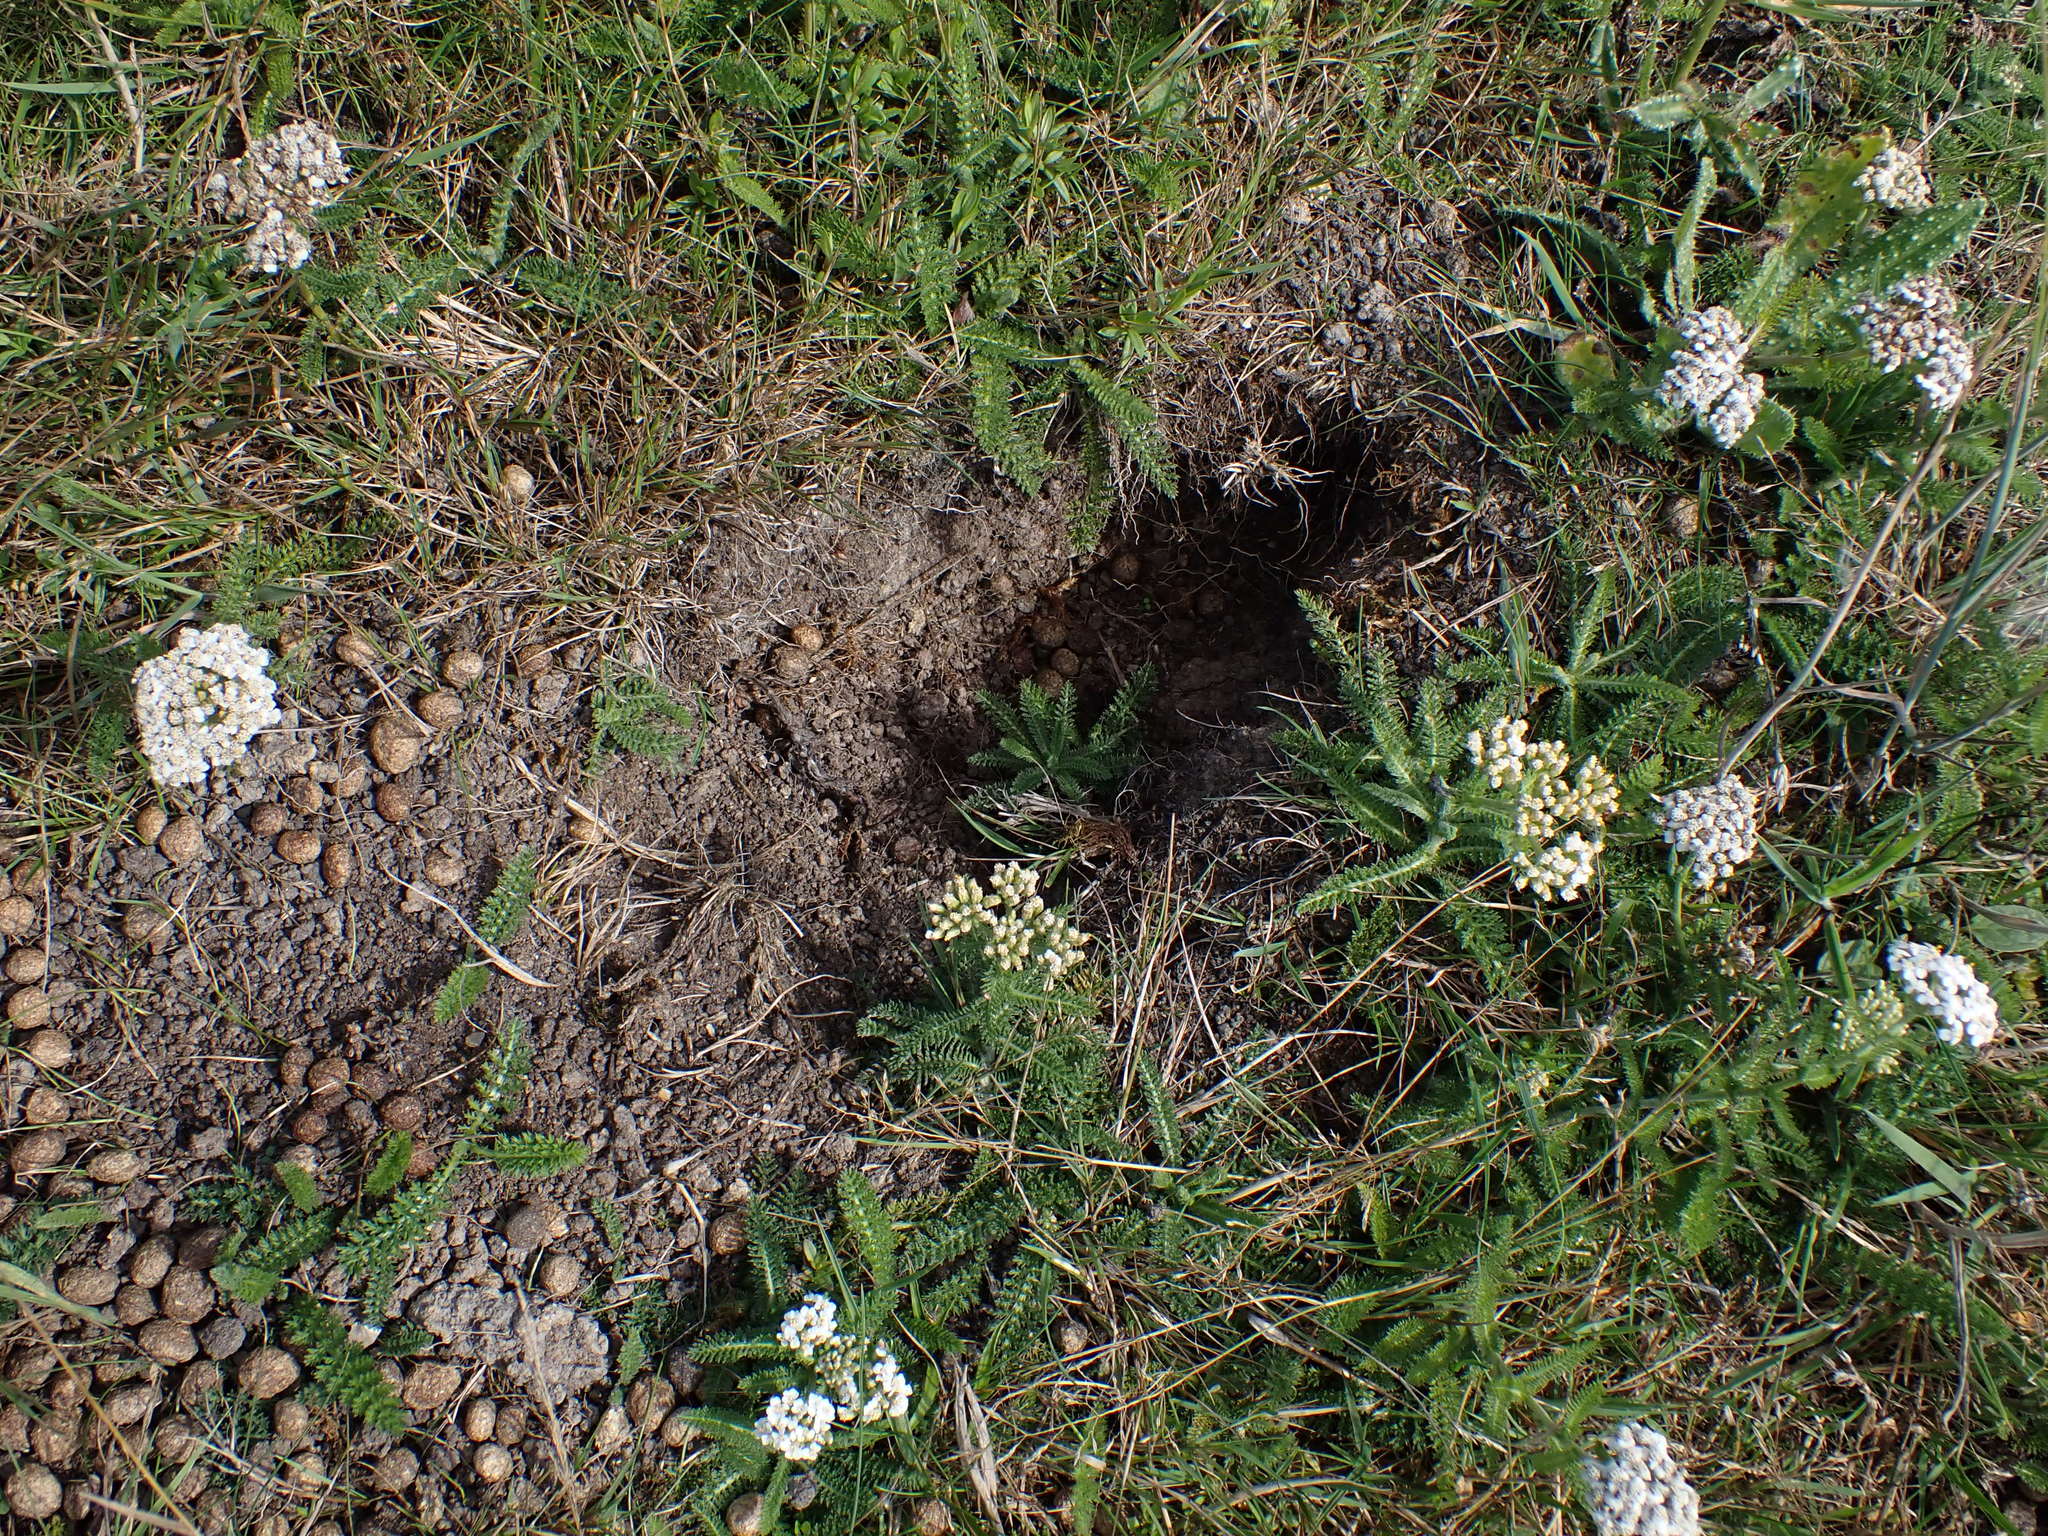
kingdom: Animalia
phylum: Chordata
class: Mammalia
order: Lagomorpha
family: Leporidae
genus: Oryctolagus
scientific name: Oryctolagus cuniculus
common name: European rabbit
